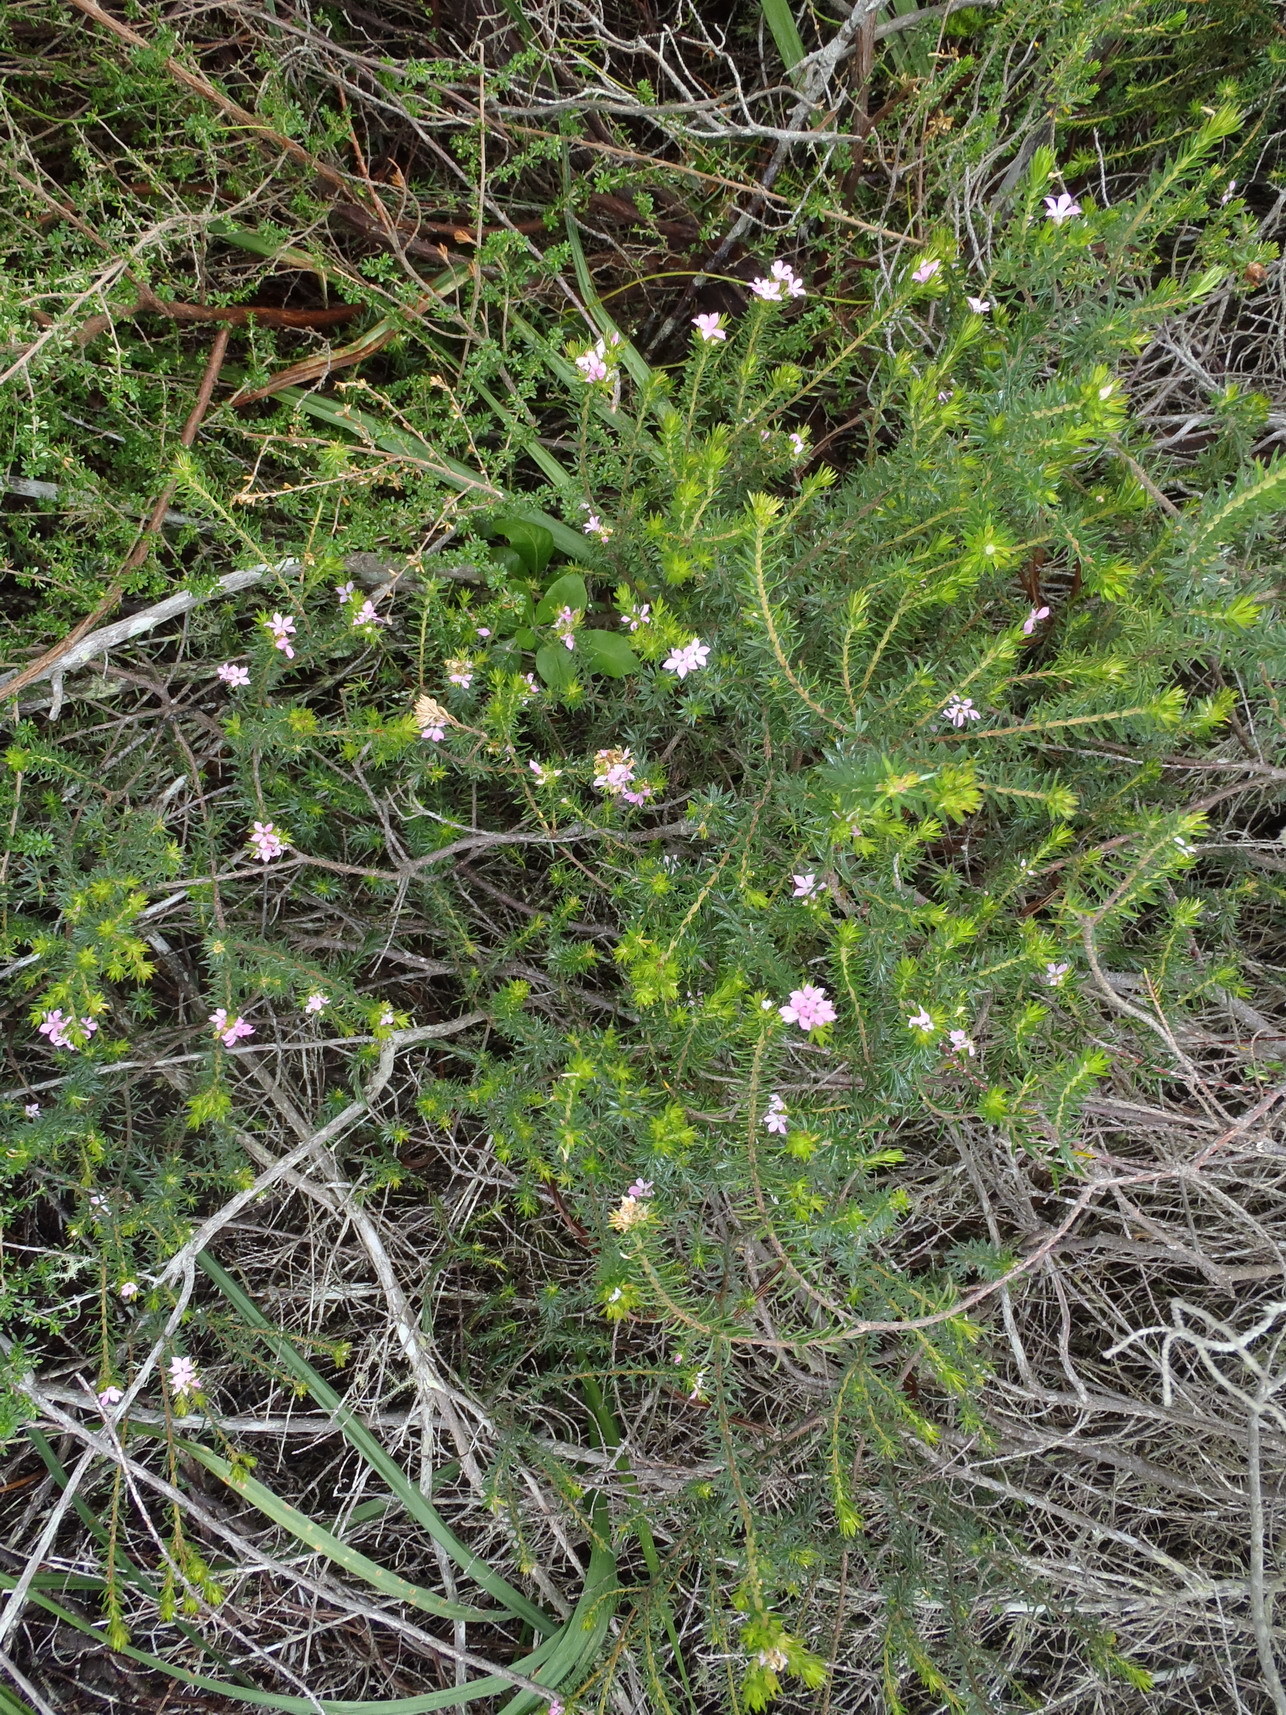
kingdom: Plantae
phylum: Tracheophyta
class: Magnoliopsida
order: Sapindales
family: Rutaceae
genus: Acmadenia
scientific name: Acmadenia alternifolia
